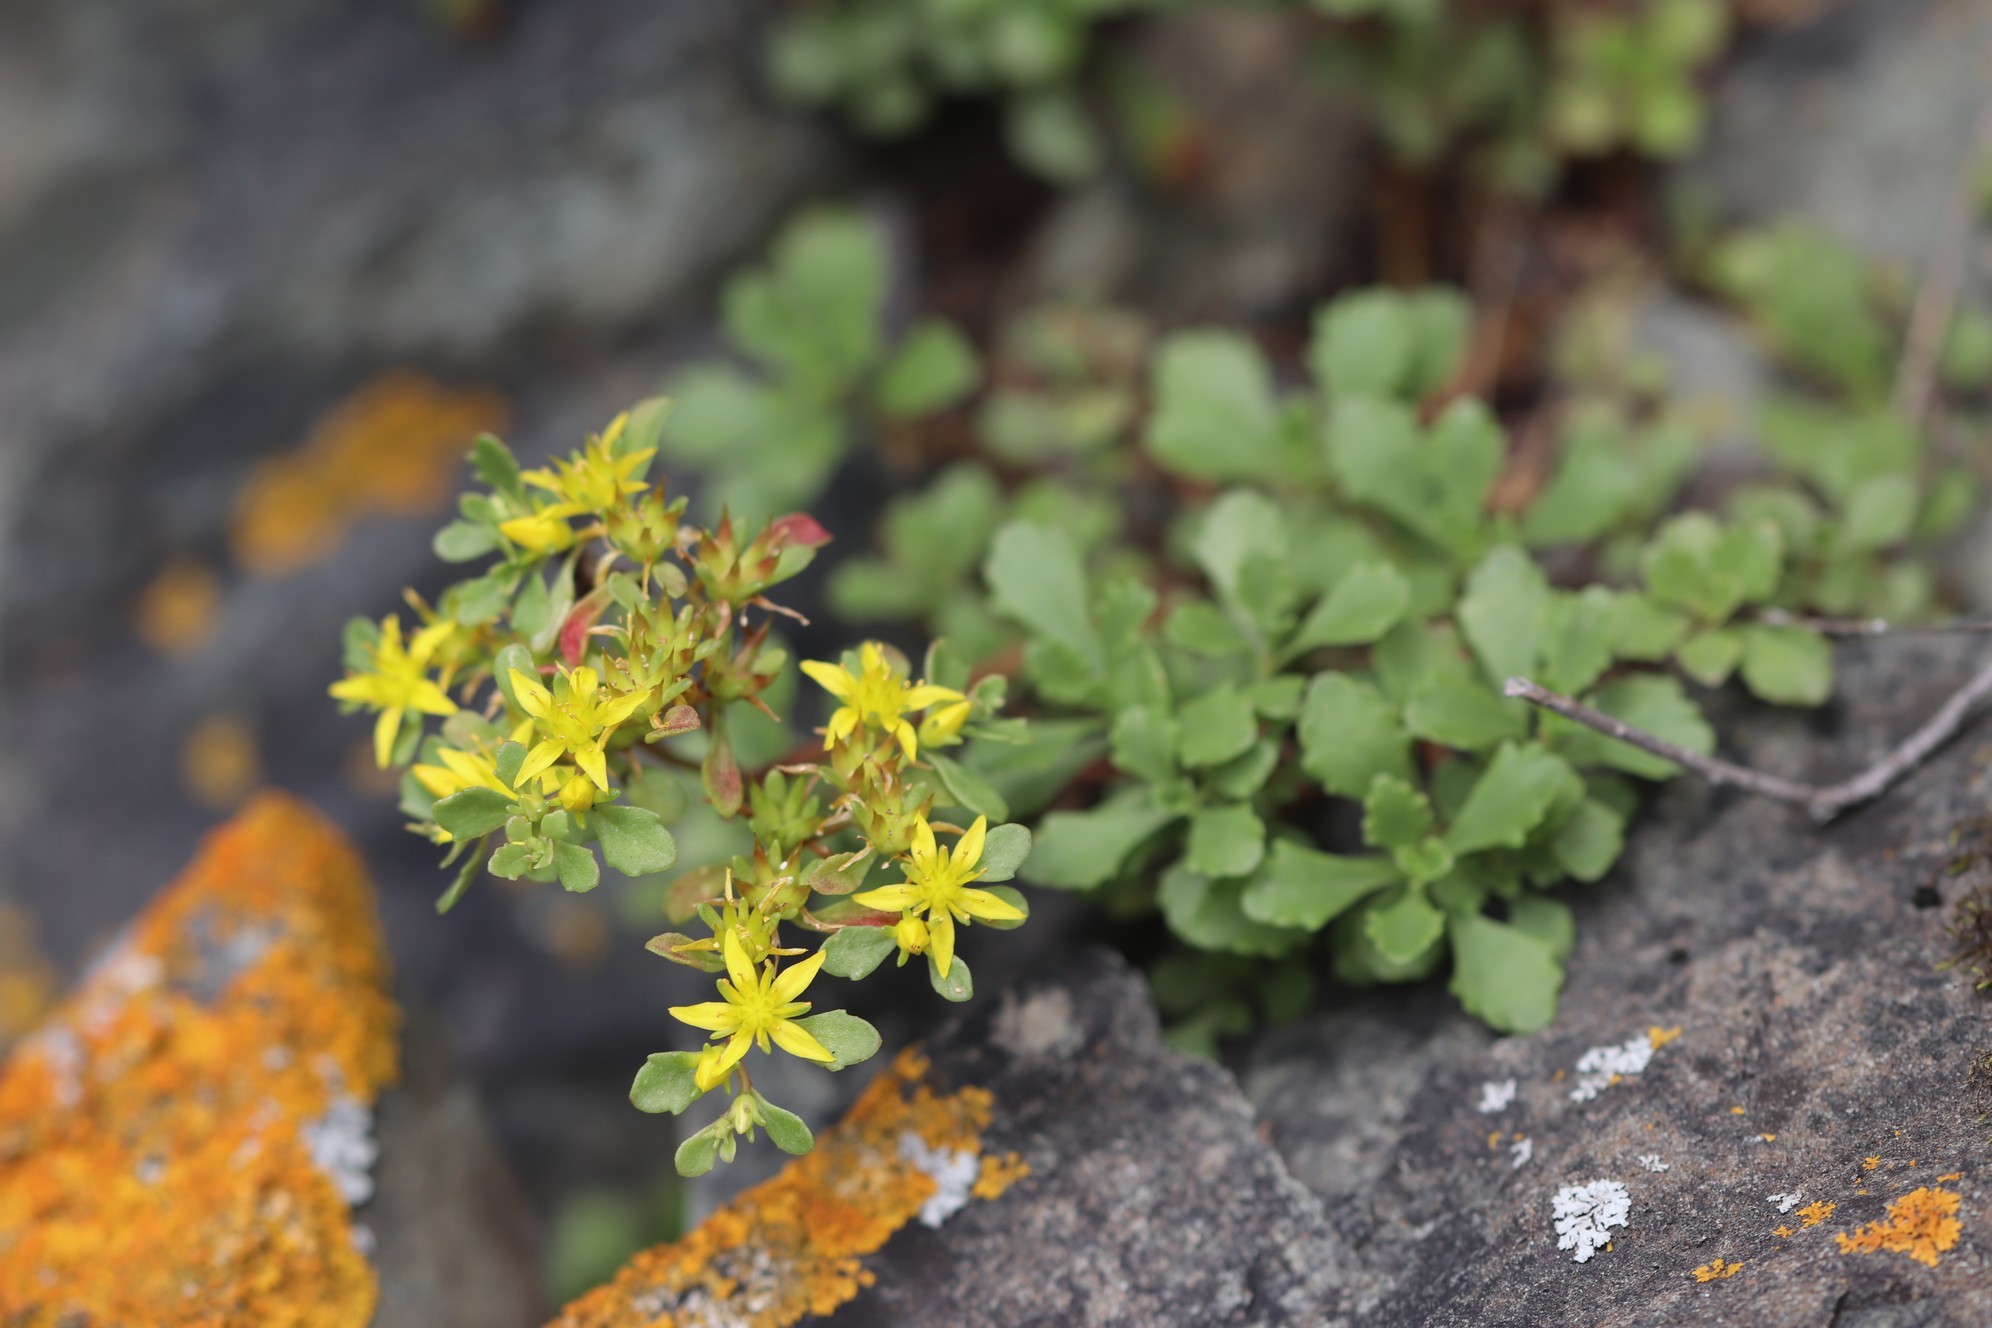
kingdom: Plantae
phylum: Tracheophyta
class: Magnoliopsida
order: Saxifragales
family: Crassulaceae
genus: Phedimus
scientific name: Phedimus hybridus
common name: Hybrid stonecrop
